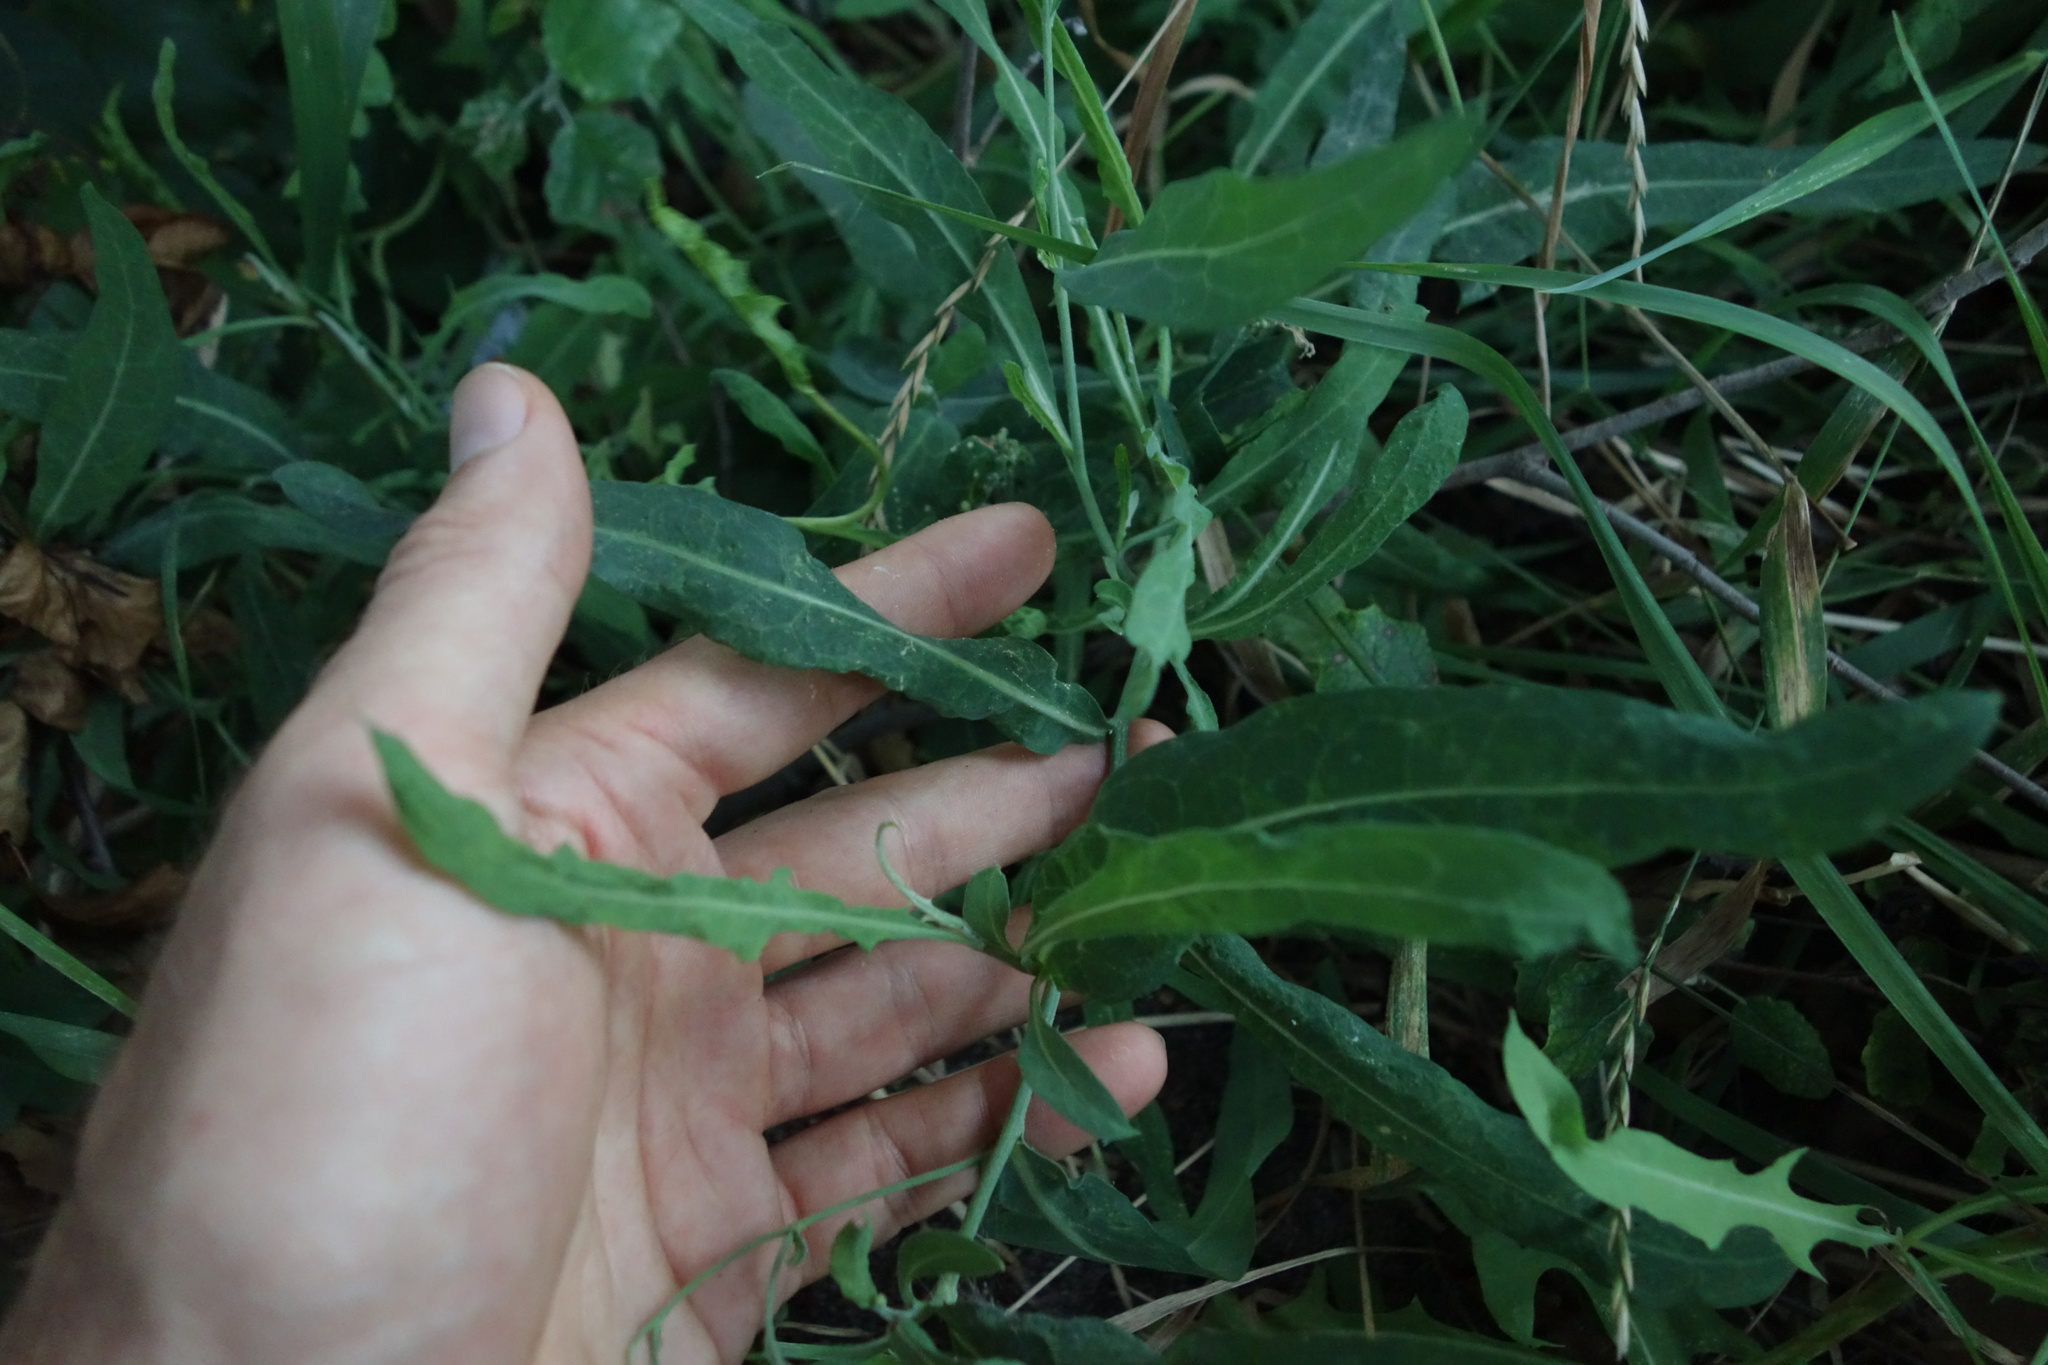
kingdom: Plantae
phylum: Tracheophyta
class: Magnoliopsida
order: Asterales
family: Asteraceae
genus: Lactuca
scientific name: Lactuca tatarica
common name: Blue lettuce
